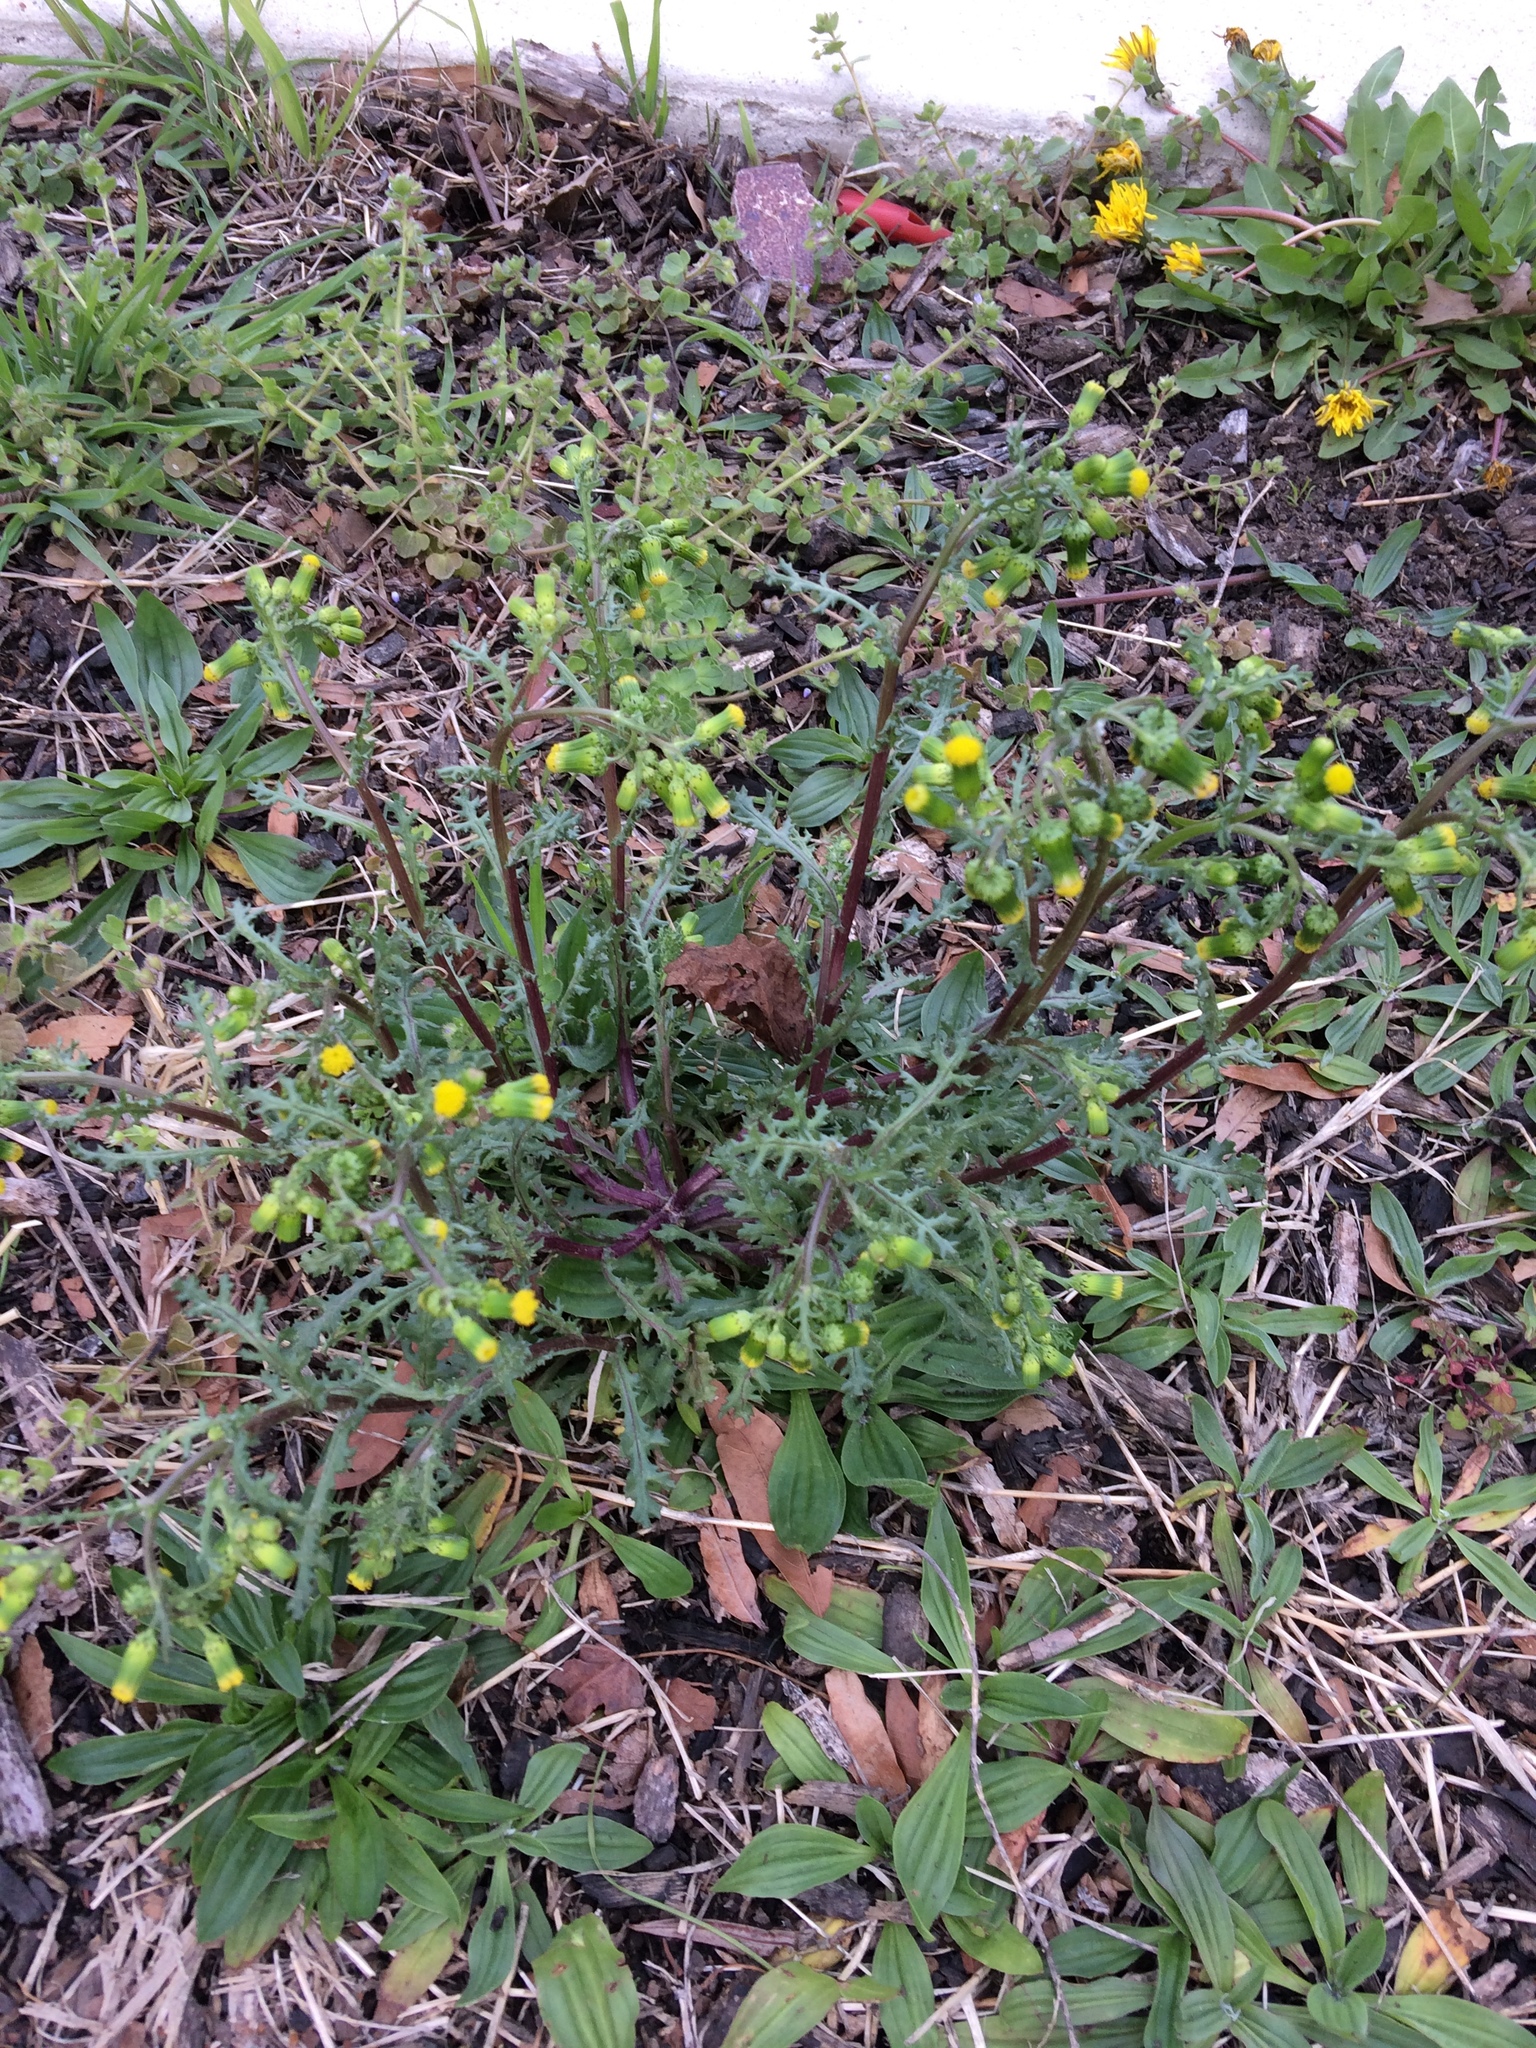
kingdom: Plantae
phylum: Tracheophyta
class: Magnoliopsida
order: Asterales
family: Asteraceae
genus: Senecio
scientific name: Senecio vulgaris
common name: Old-man-in-the-spring
